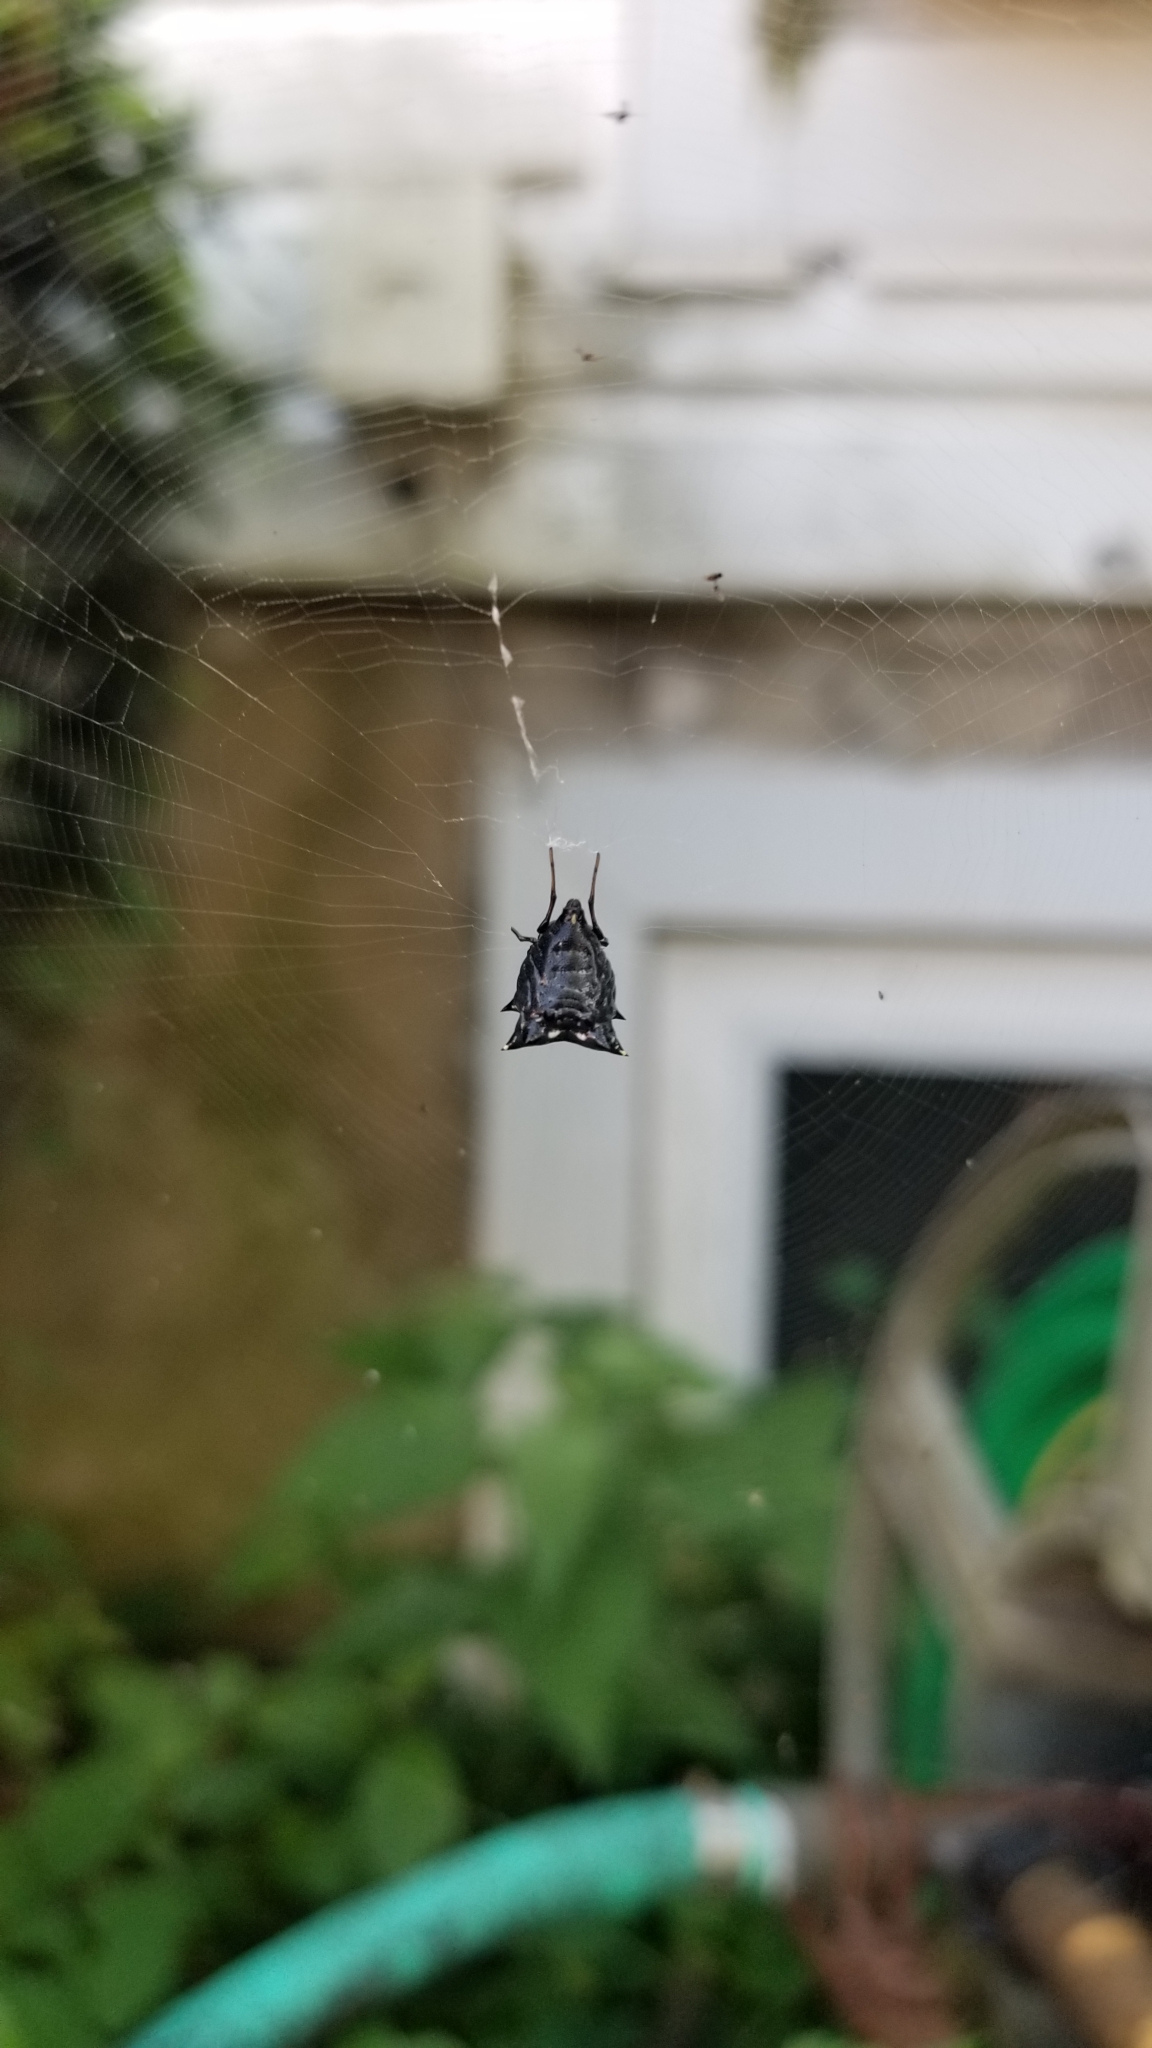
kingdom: Animalia
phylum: Arthropoda
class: Arachnida
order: Araneae
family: Araneidae
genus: Micrathena
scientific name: Micrathena gracilis
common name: Orb weavers
